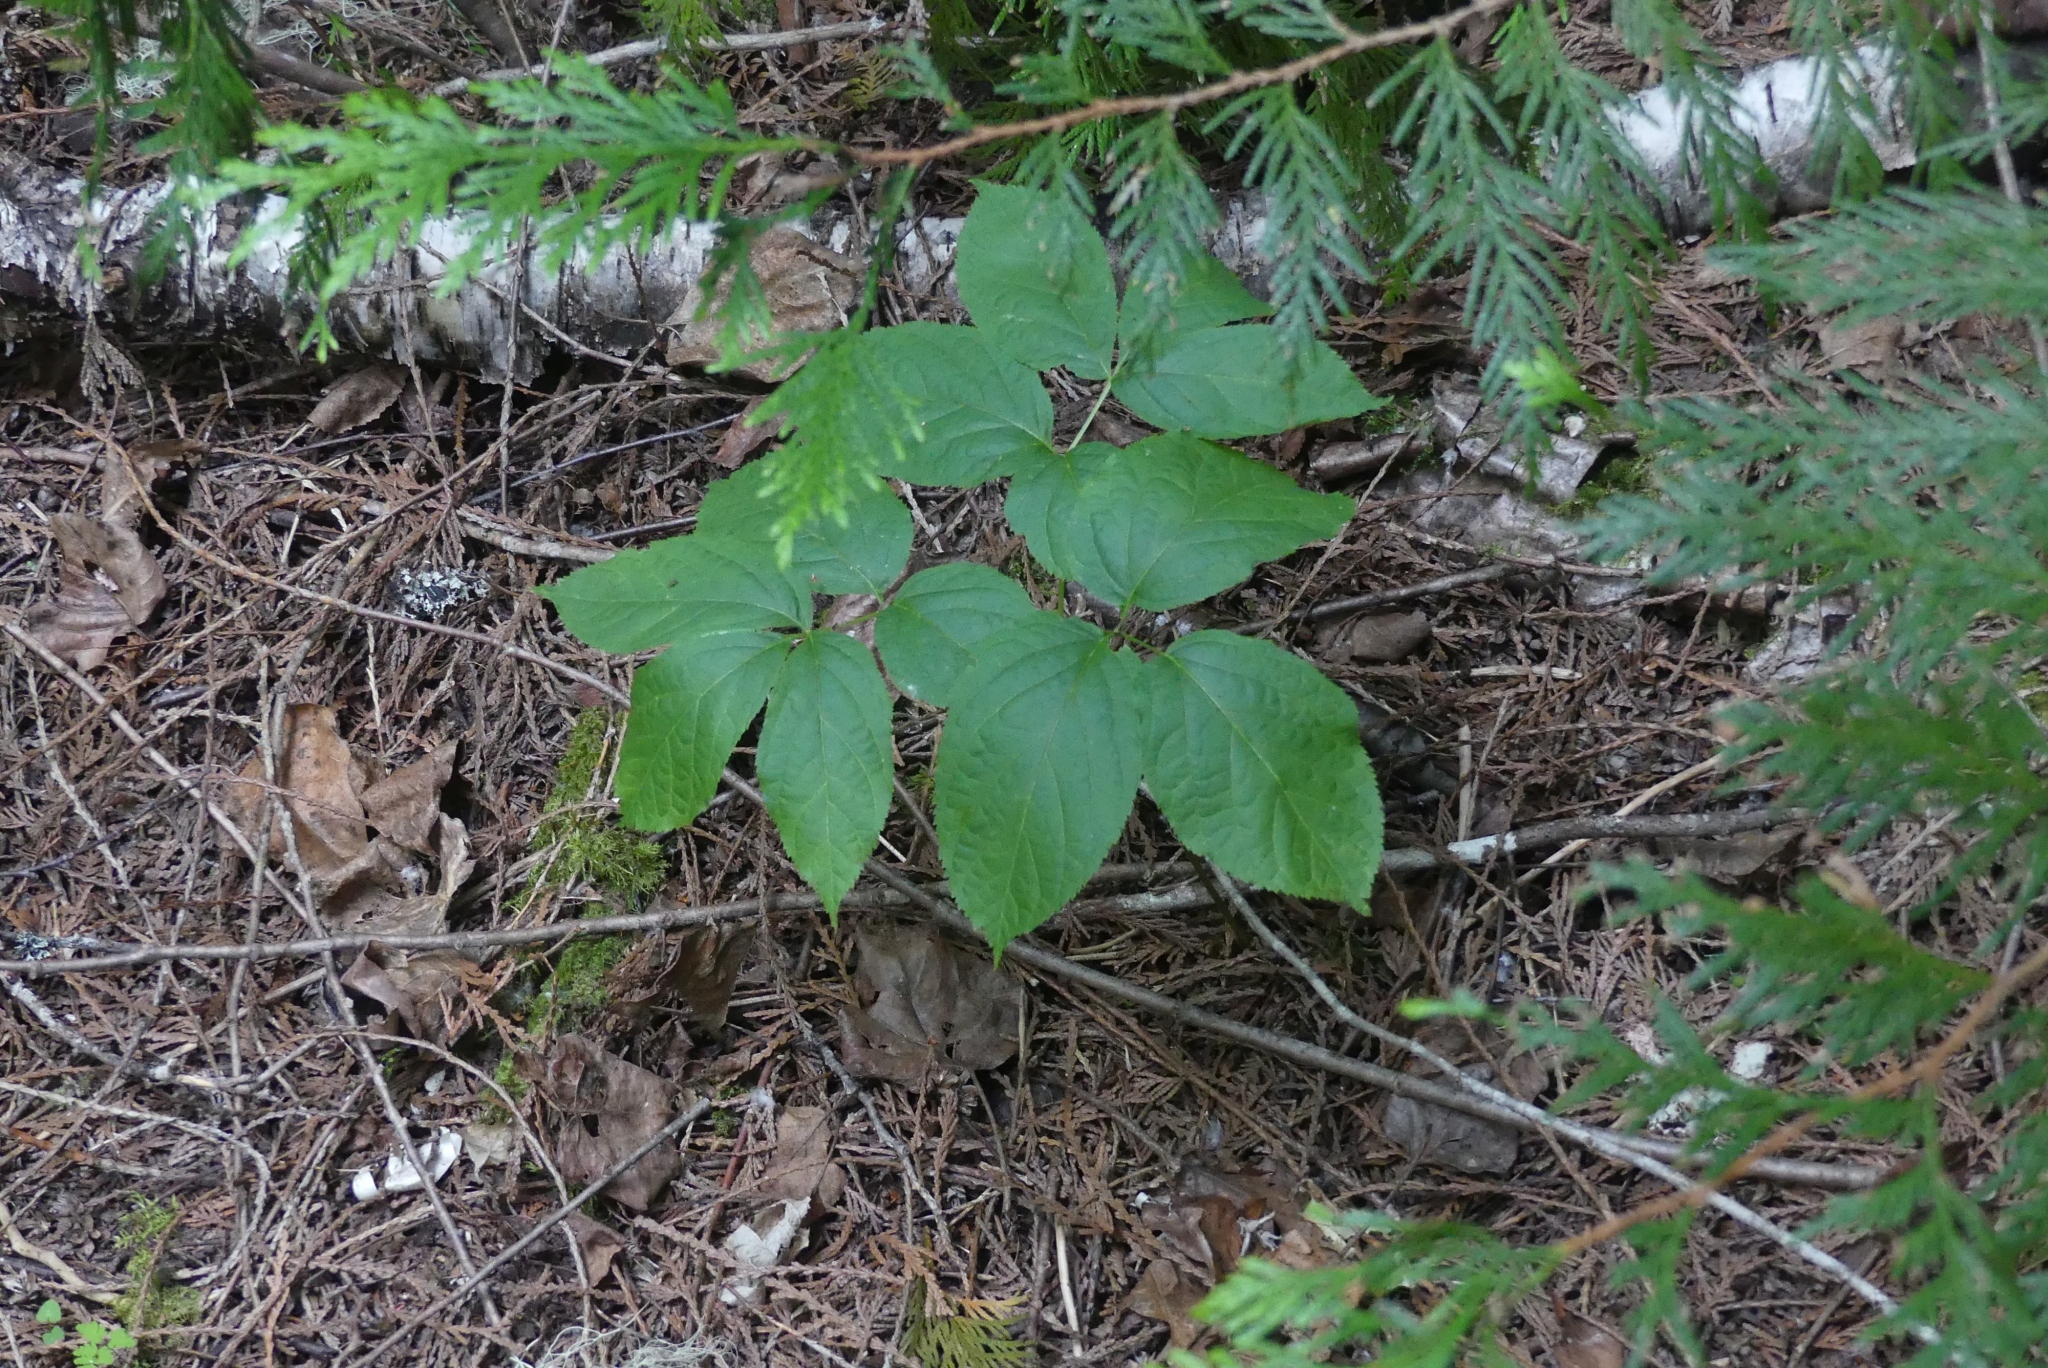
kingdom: Plantae
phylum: Tracheophyta
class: Magnoliopsida
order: Apiales
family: Araliaceae
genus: Aralia
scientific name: Aralia nudicaulis
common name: Wild sarsaparilla
